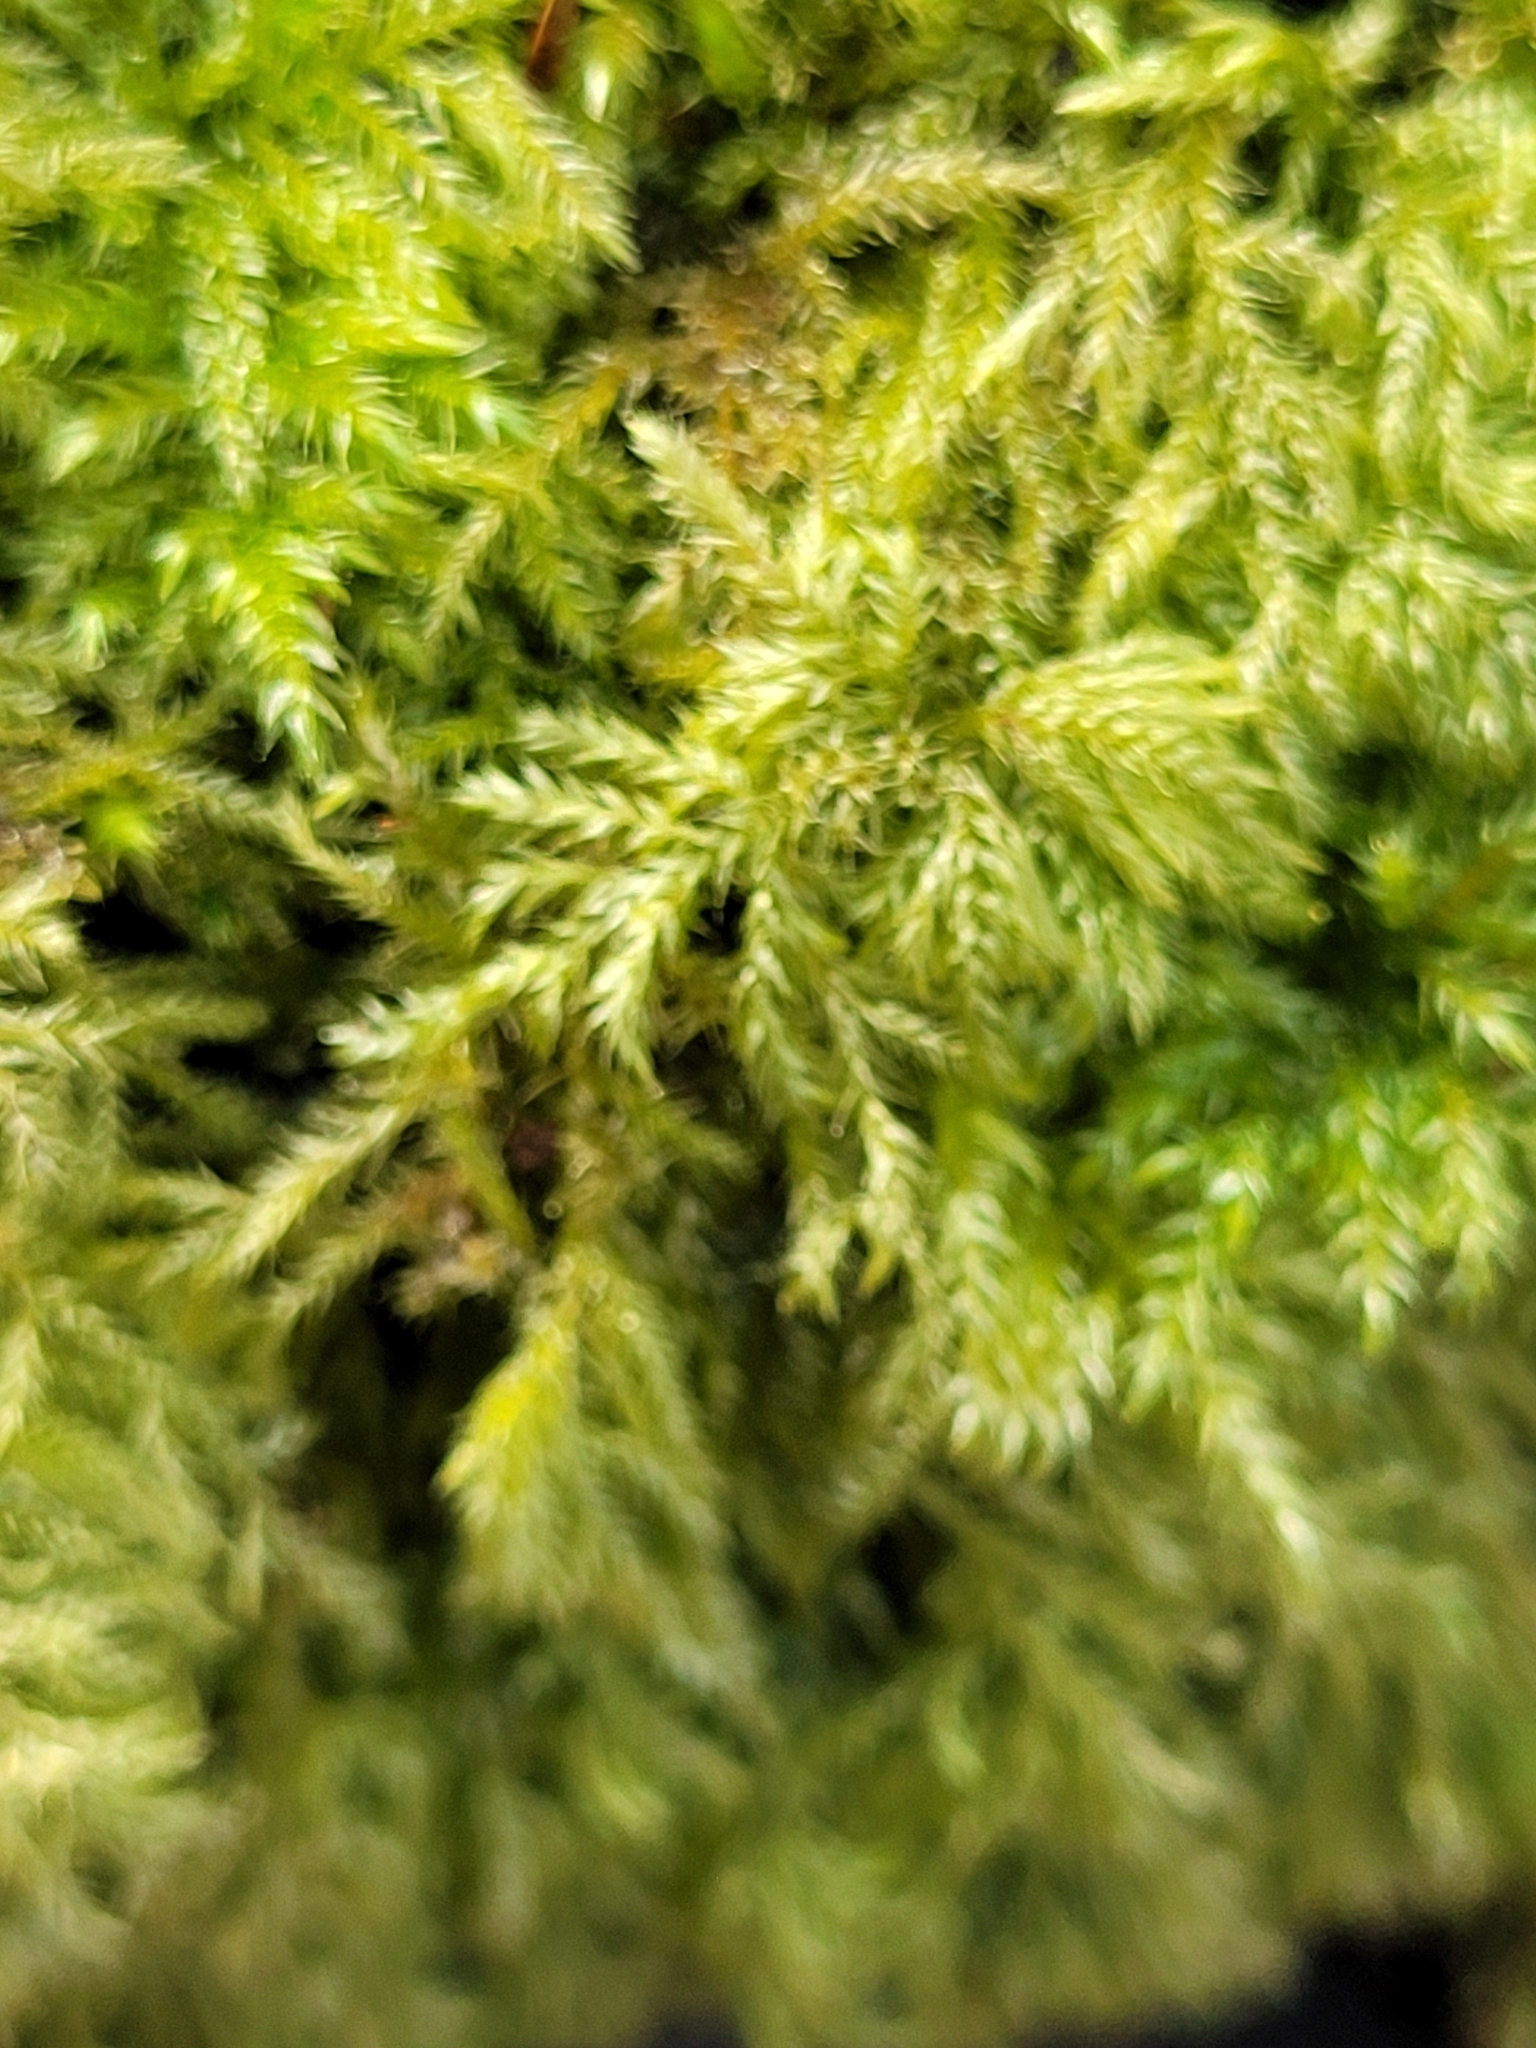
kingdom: Plantae
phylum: Bryophyta
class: Bryopsida
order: Hypnales
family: Lembophyllaceae
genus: Pseudisothecium
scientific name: Pseudisothecium myosuroides
